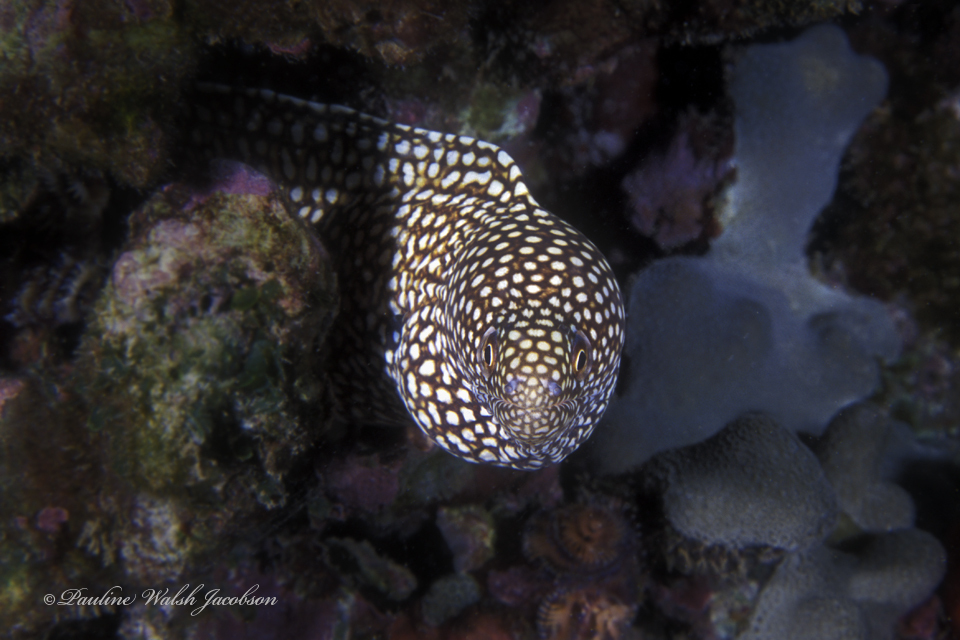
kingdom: Animalia
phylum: Chordata
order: Anguilliformes
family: Muraenidae
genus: Gymnothorax
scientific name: Gymnothorax meleagris
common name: Guineafowl moray
